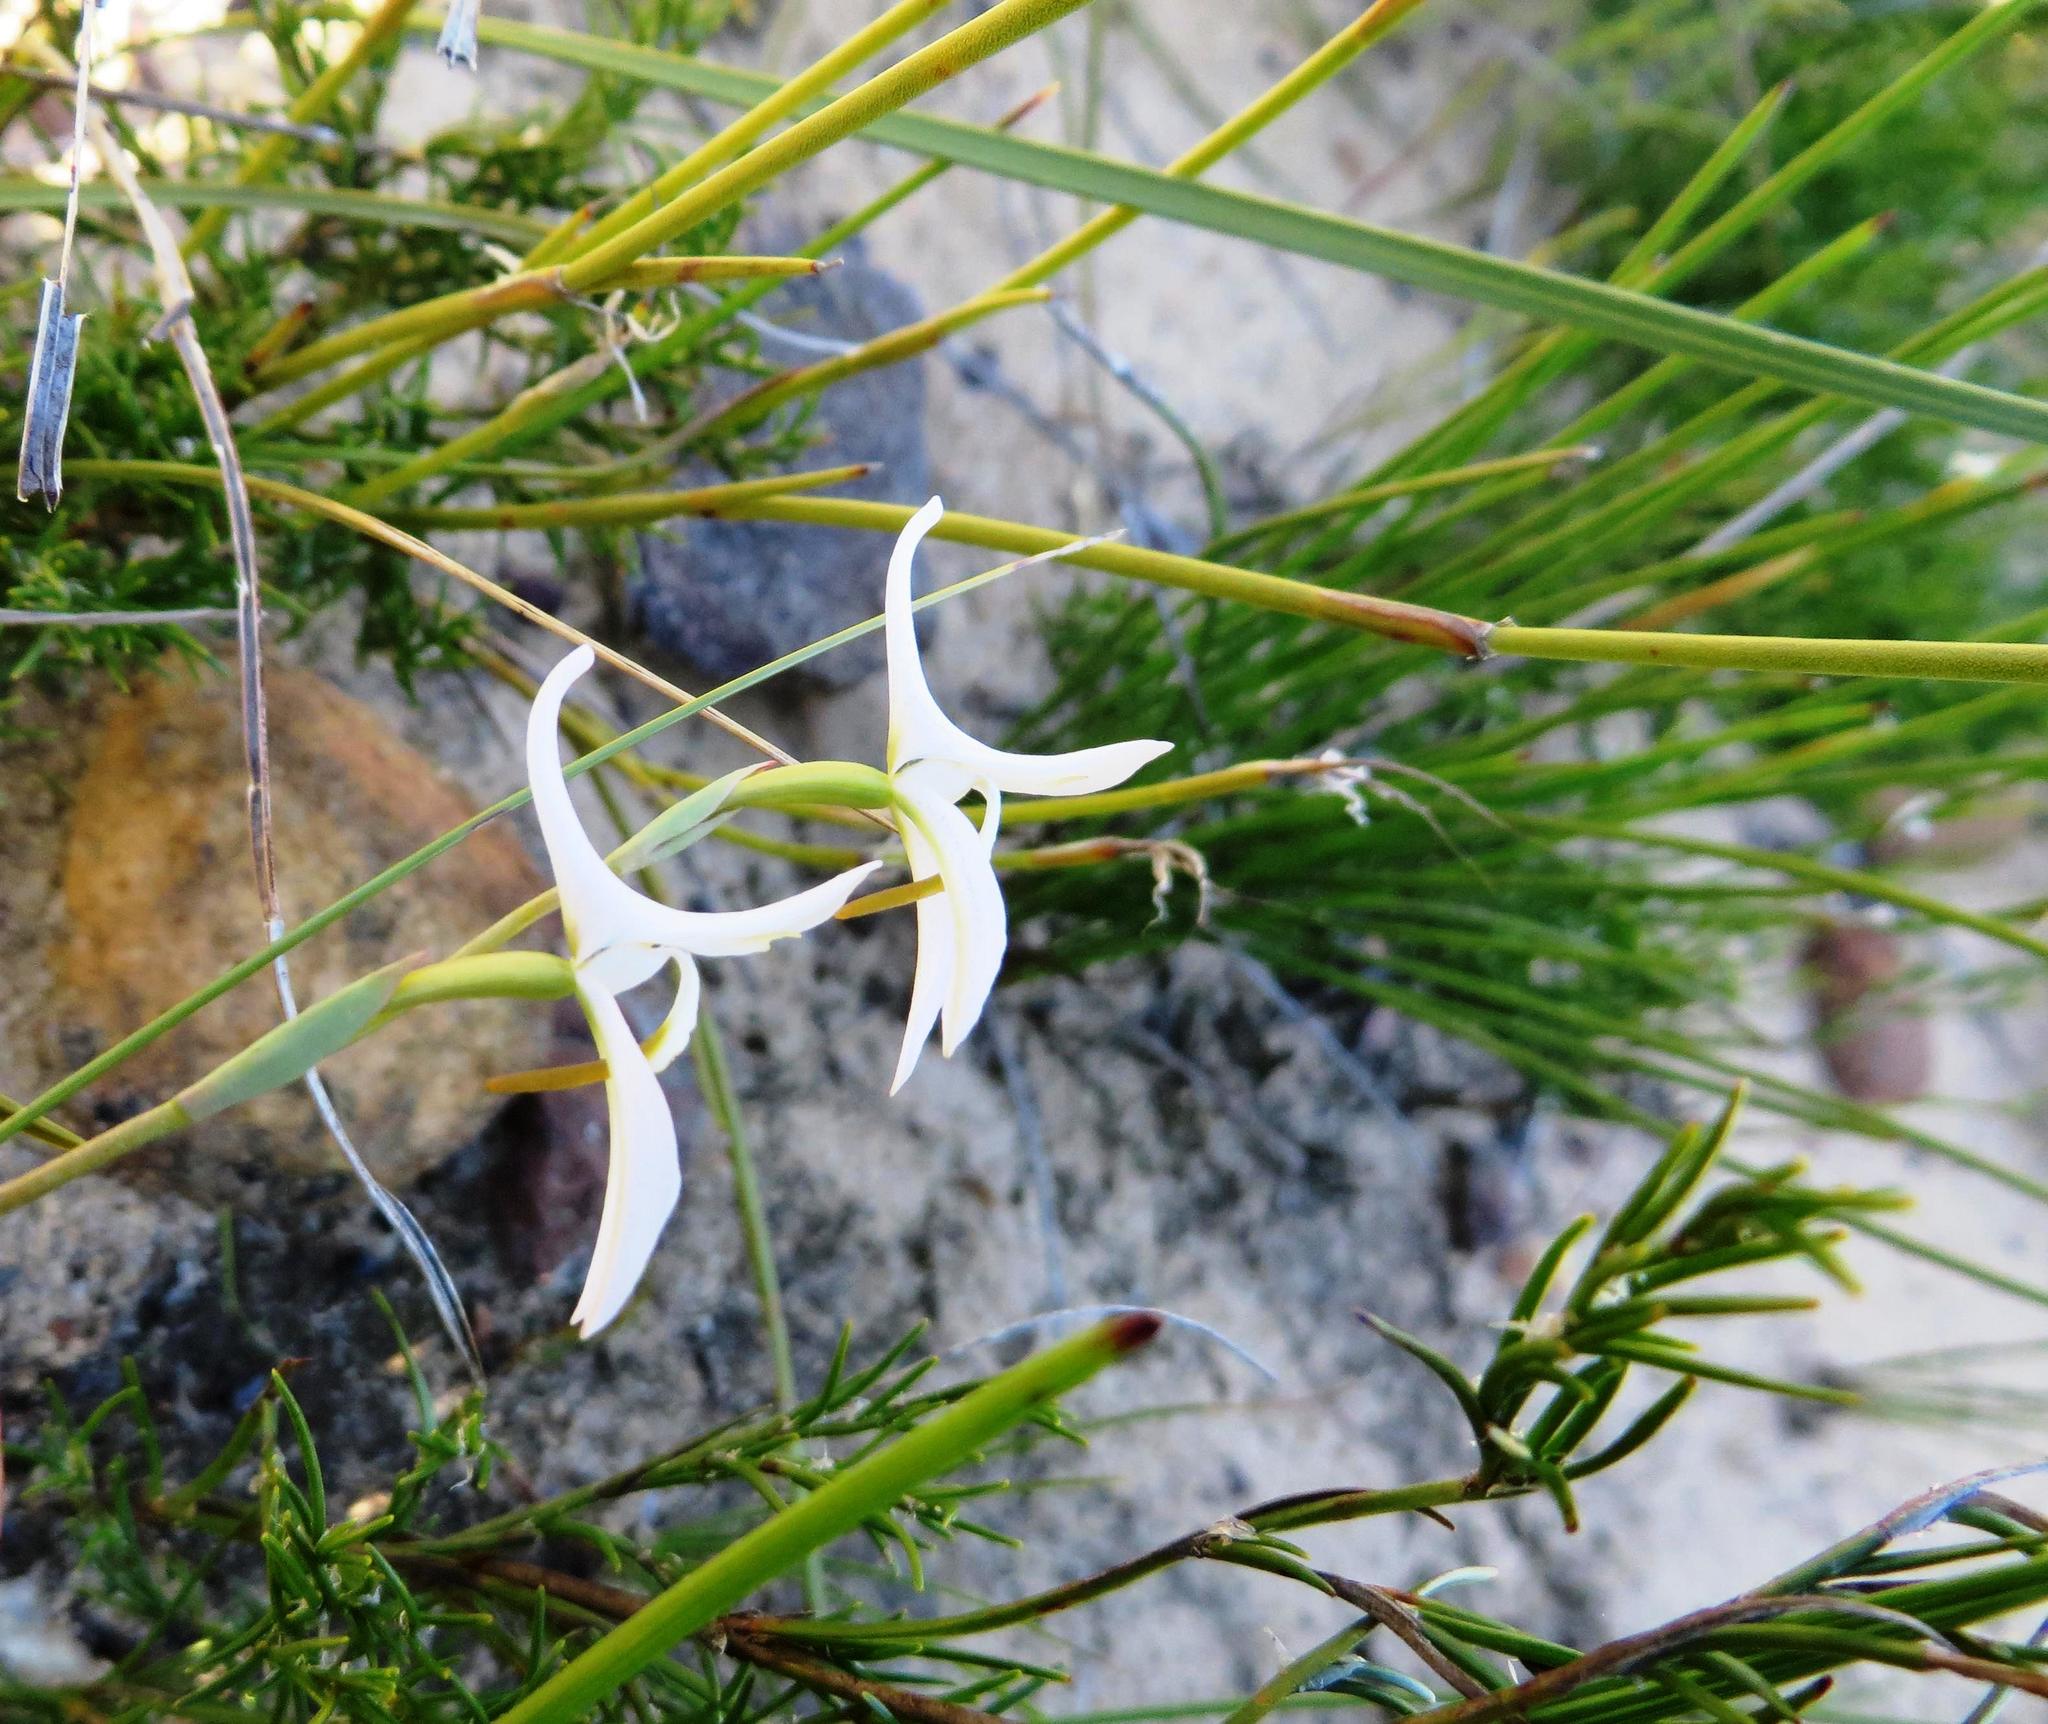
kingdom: Plantae
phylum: Tracheophyta
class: Liliopsida
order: Asparagales
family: Orchidaceae
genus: Disa
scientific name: Disa bifida
